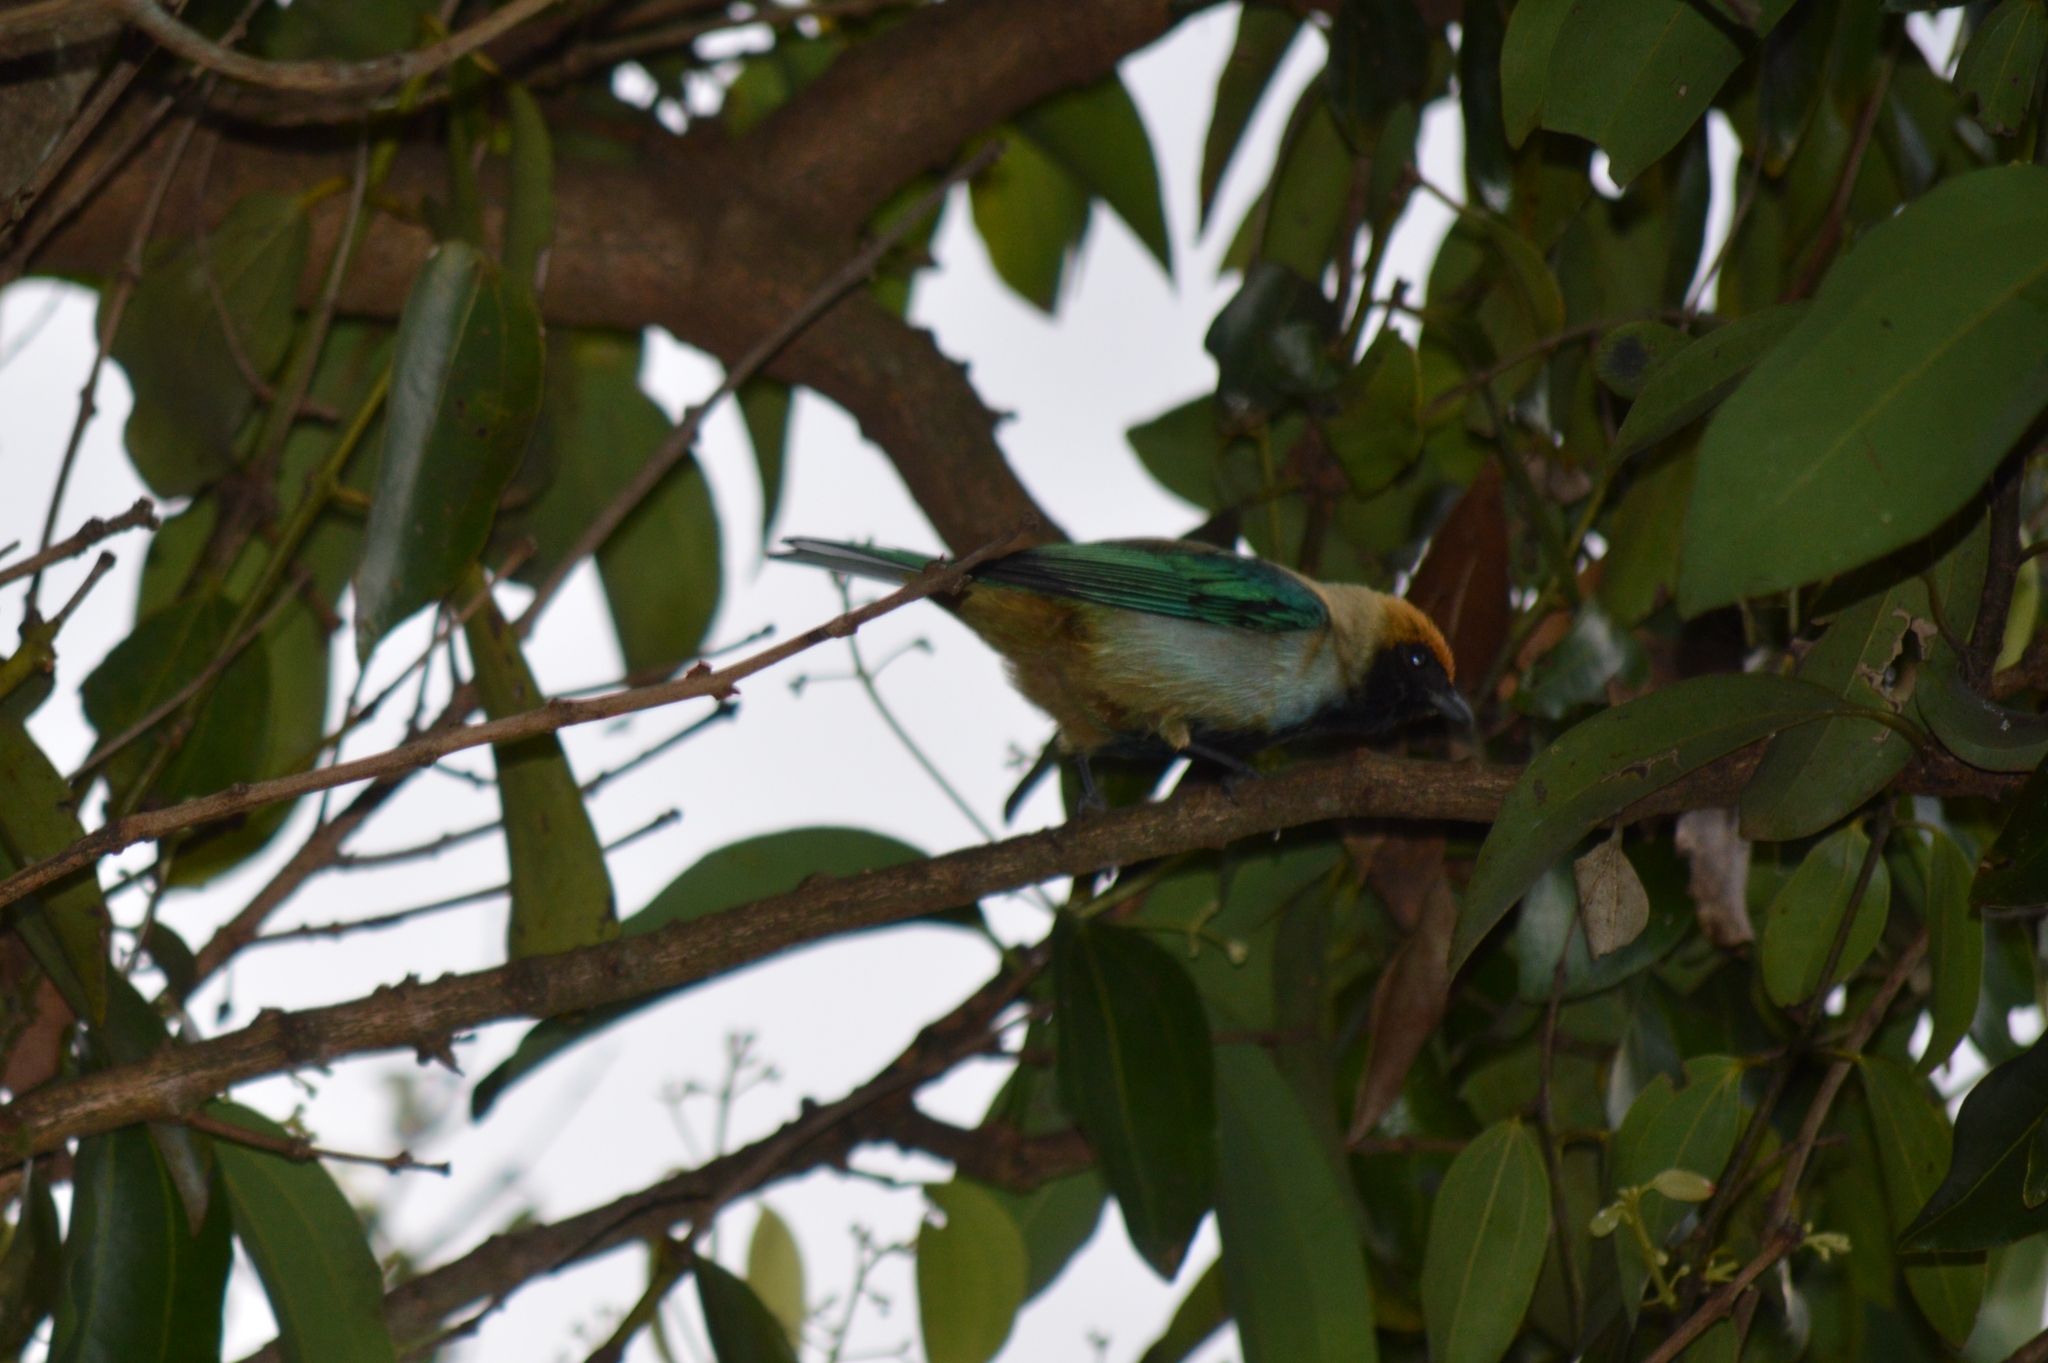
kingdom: Animalia
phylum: Chordata
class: Aves
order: Passeriformes
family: Thraupidae
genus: Stilpnia
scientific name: Stilpnia cayana
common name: Burnished-buff tanager
